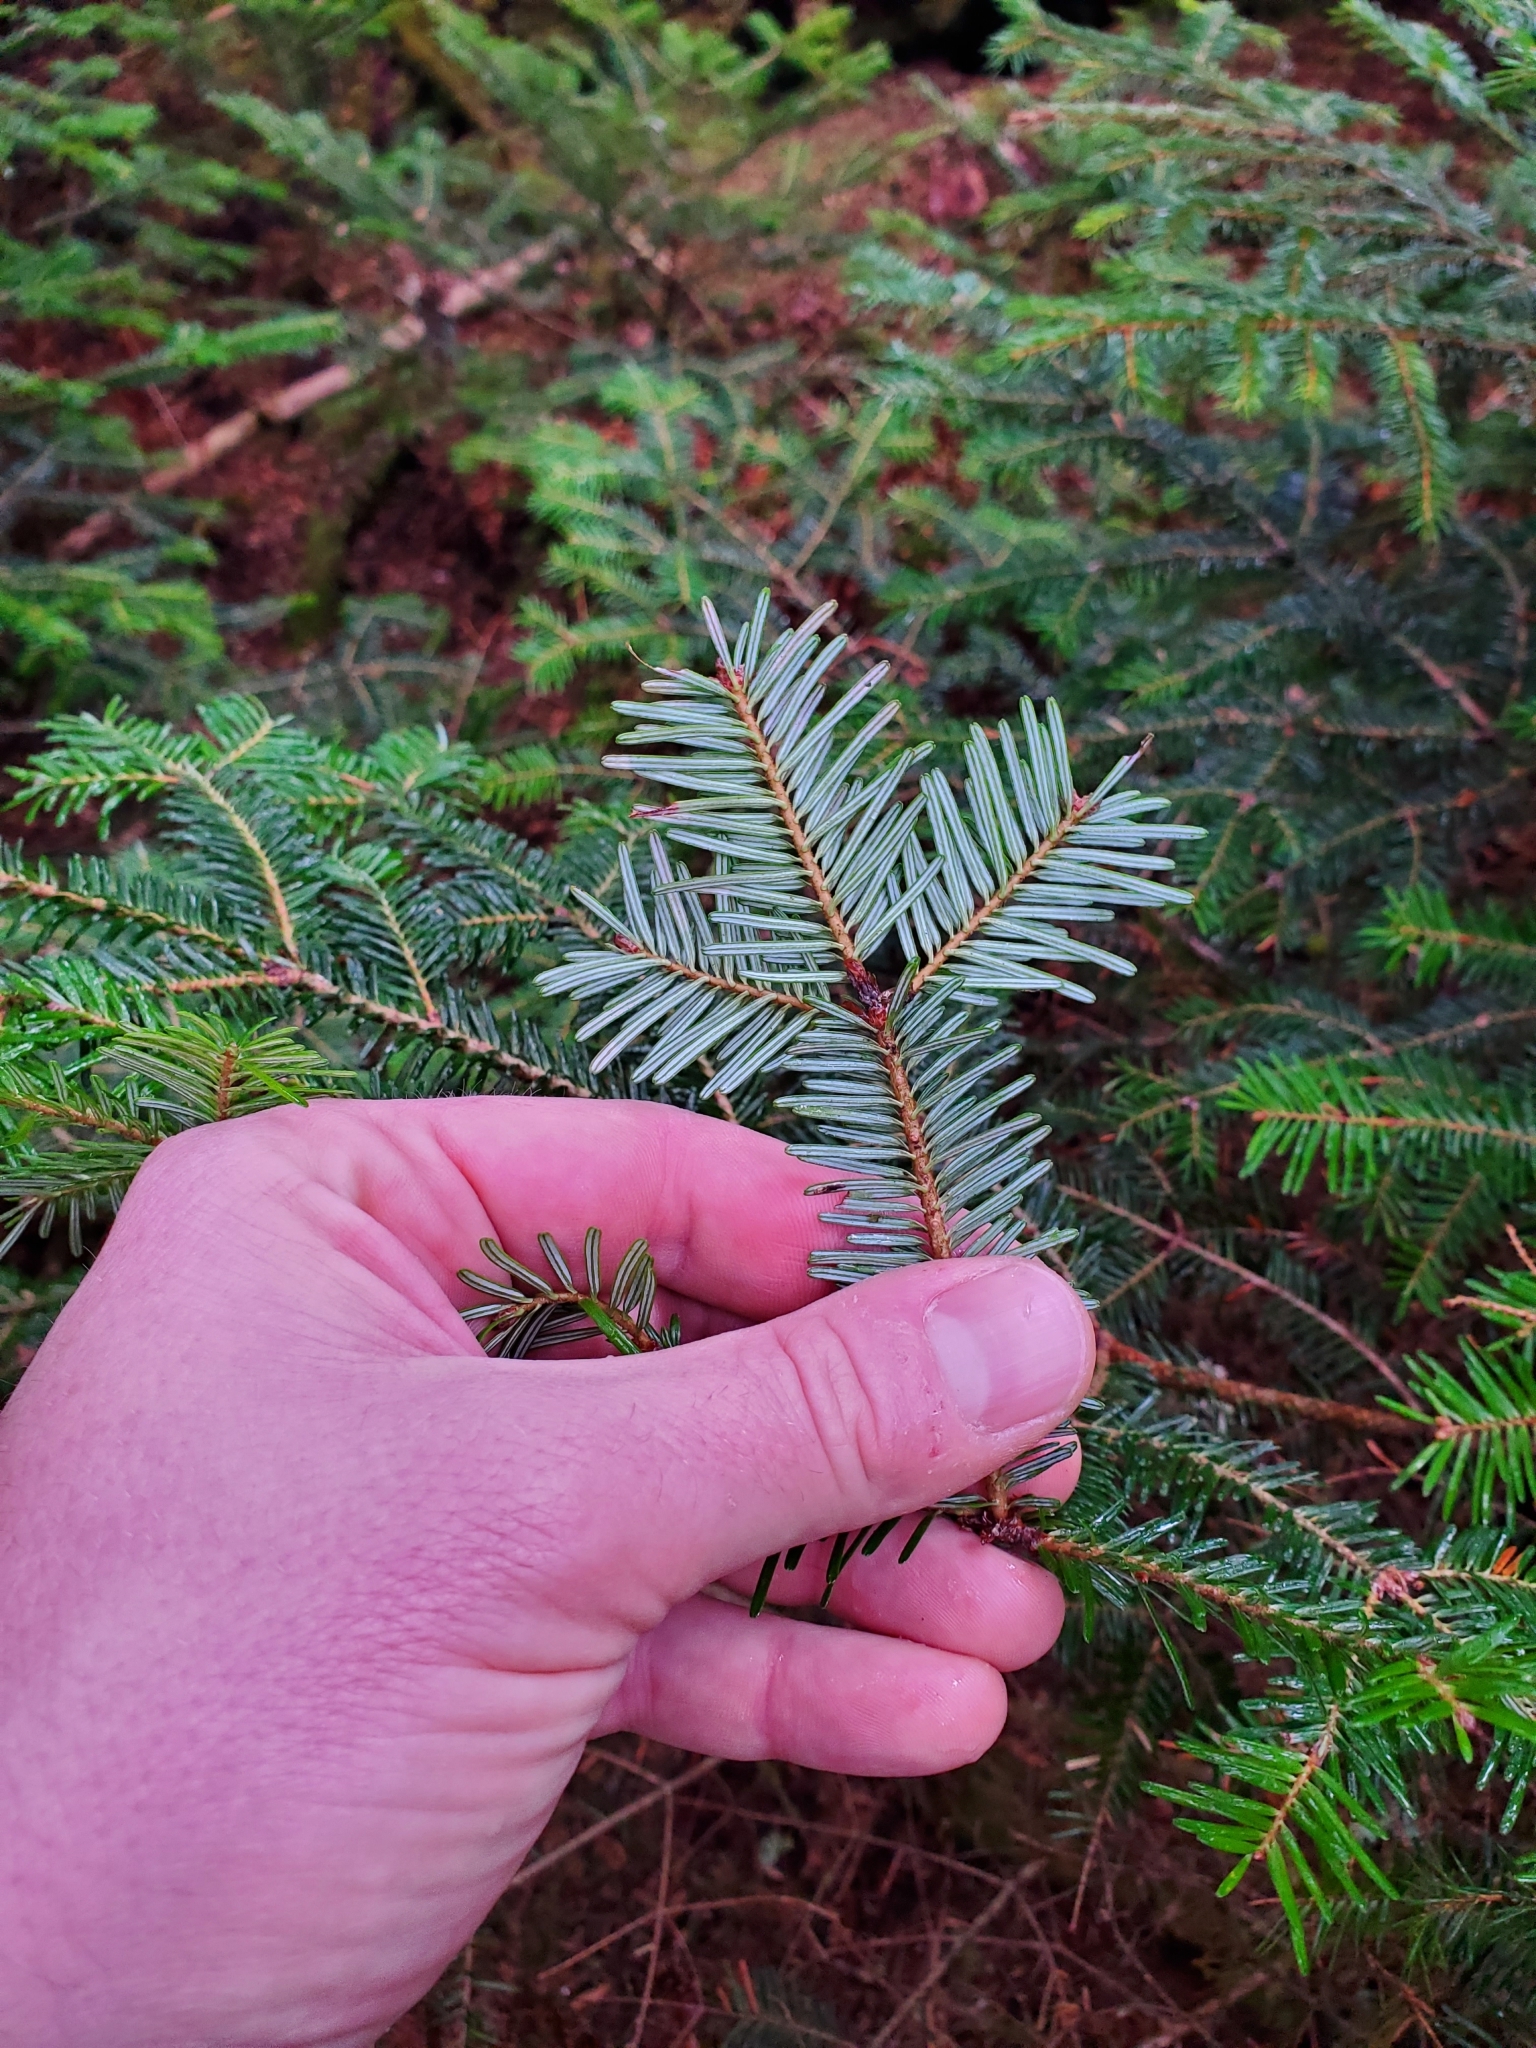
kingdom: Plantae
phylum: Tracheophyta
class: Pinopsida
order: Pinales
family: Pinaceae
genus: Abies
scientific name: Abies fraseri
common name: Fraser fir
